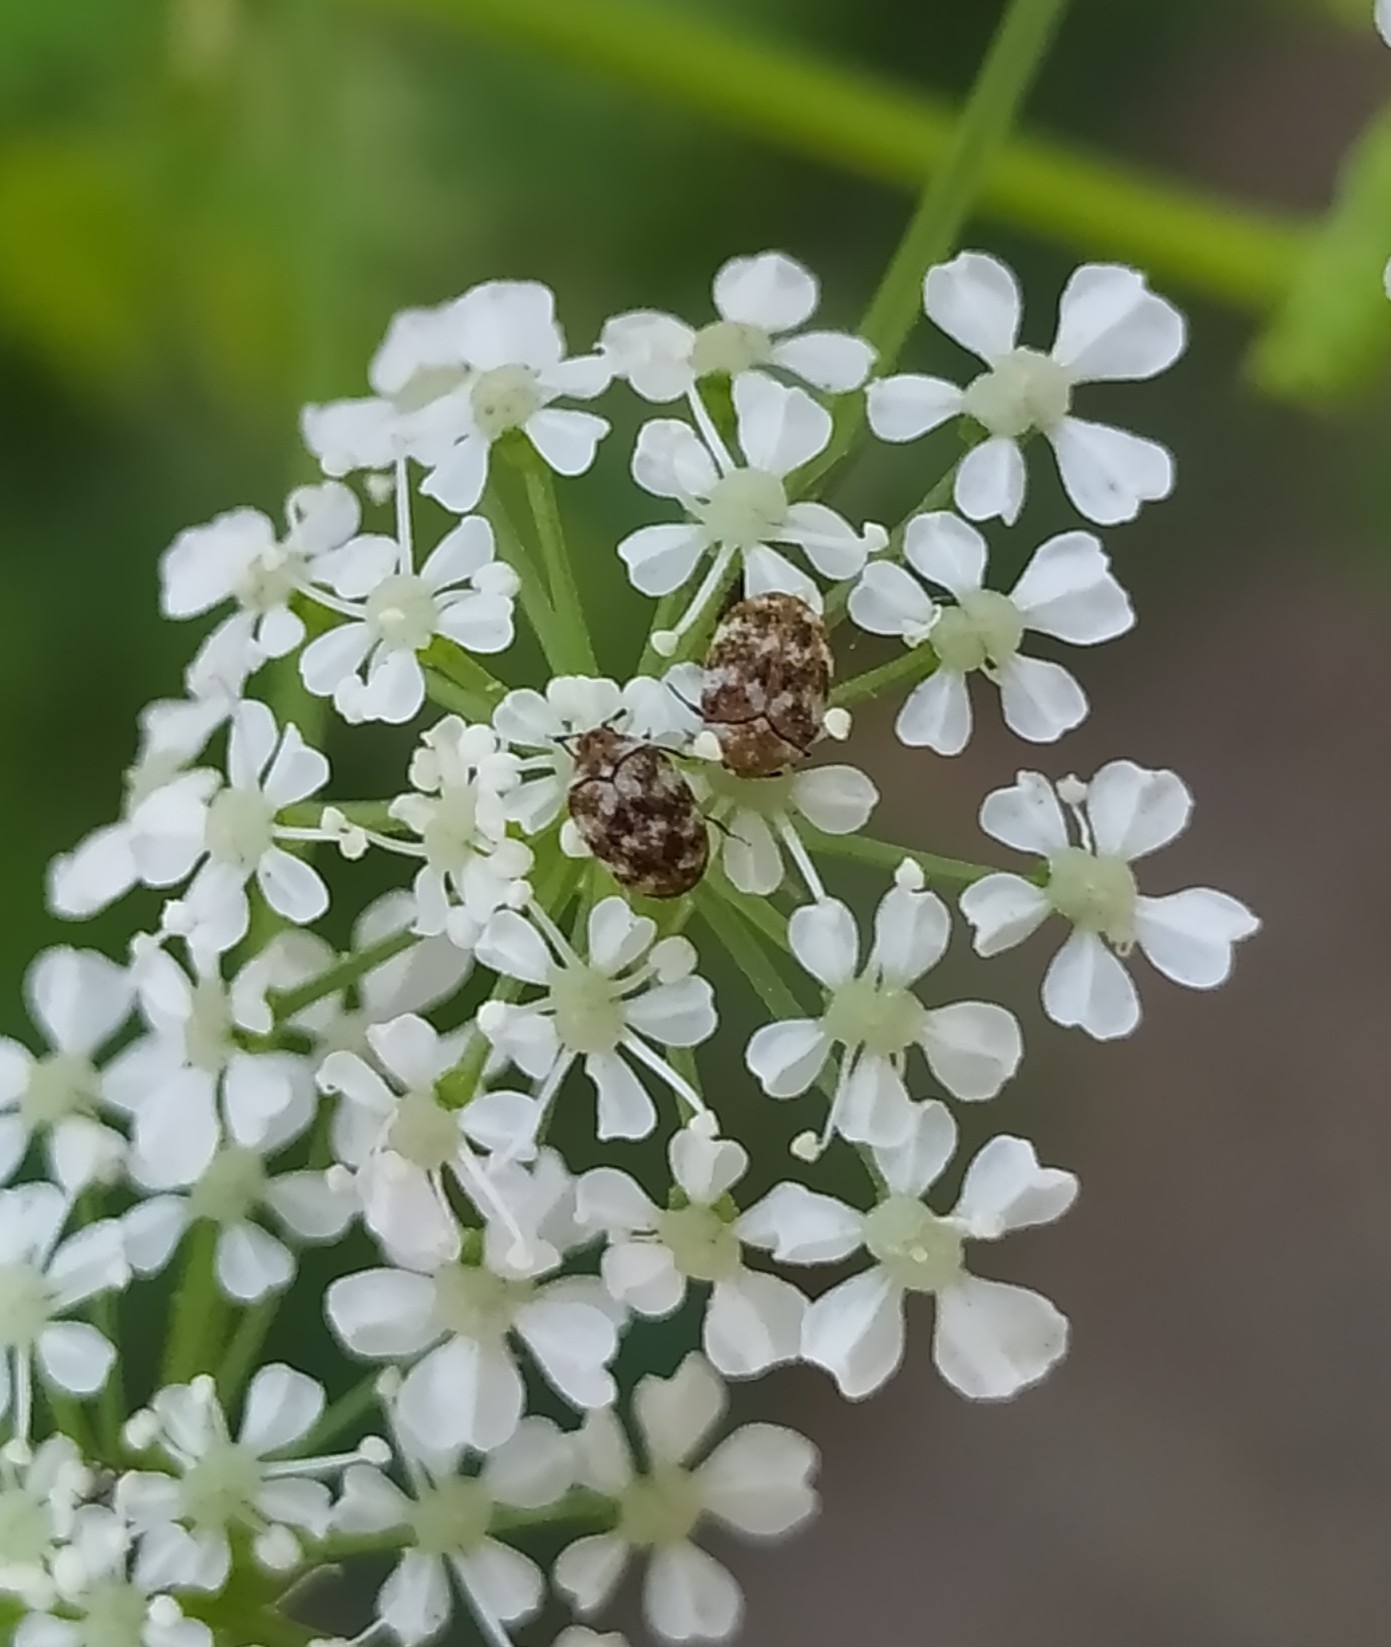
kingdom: Animalia
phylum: Arthropoda
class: Insecta
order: Coleoptera
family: Dermestidae
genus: Anthrenus
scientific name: Anthrenus verbasci
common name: Varied carpet beetle
